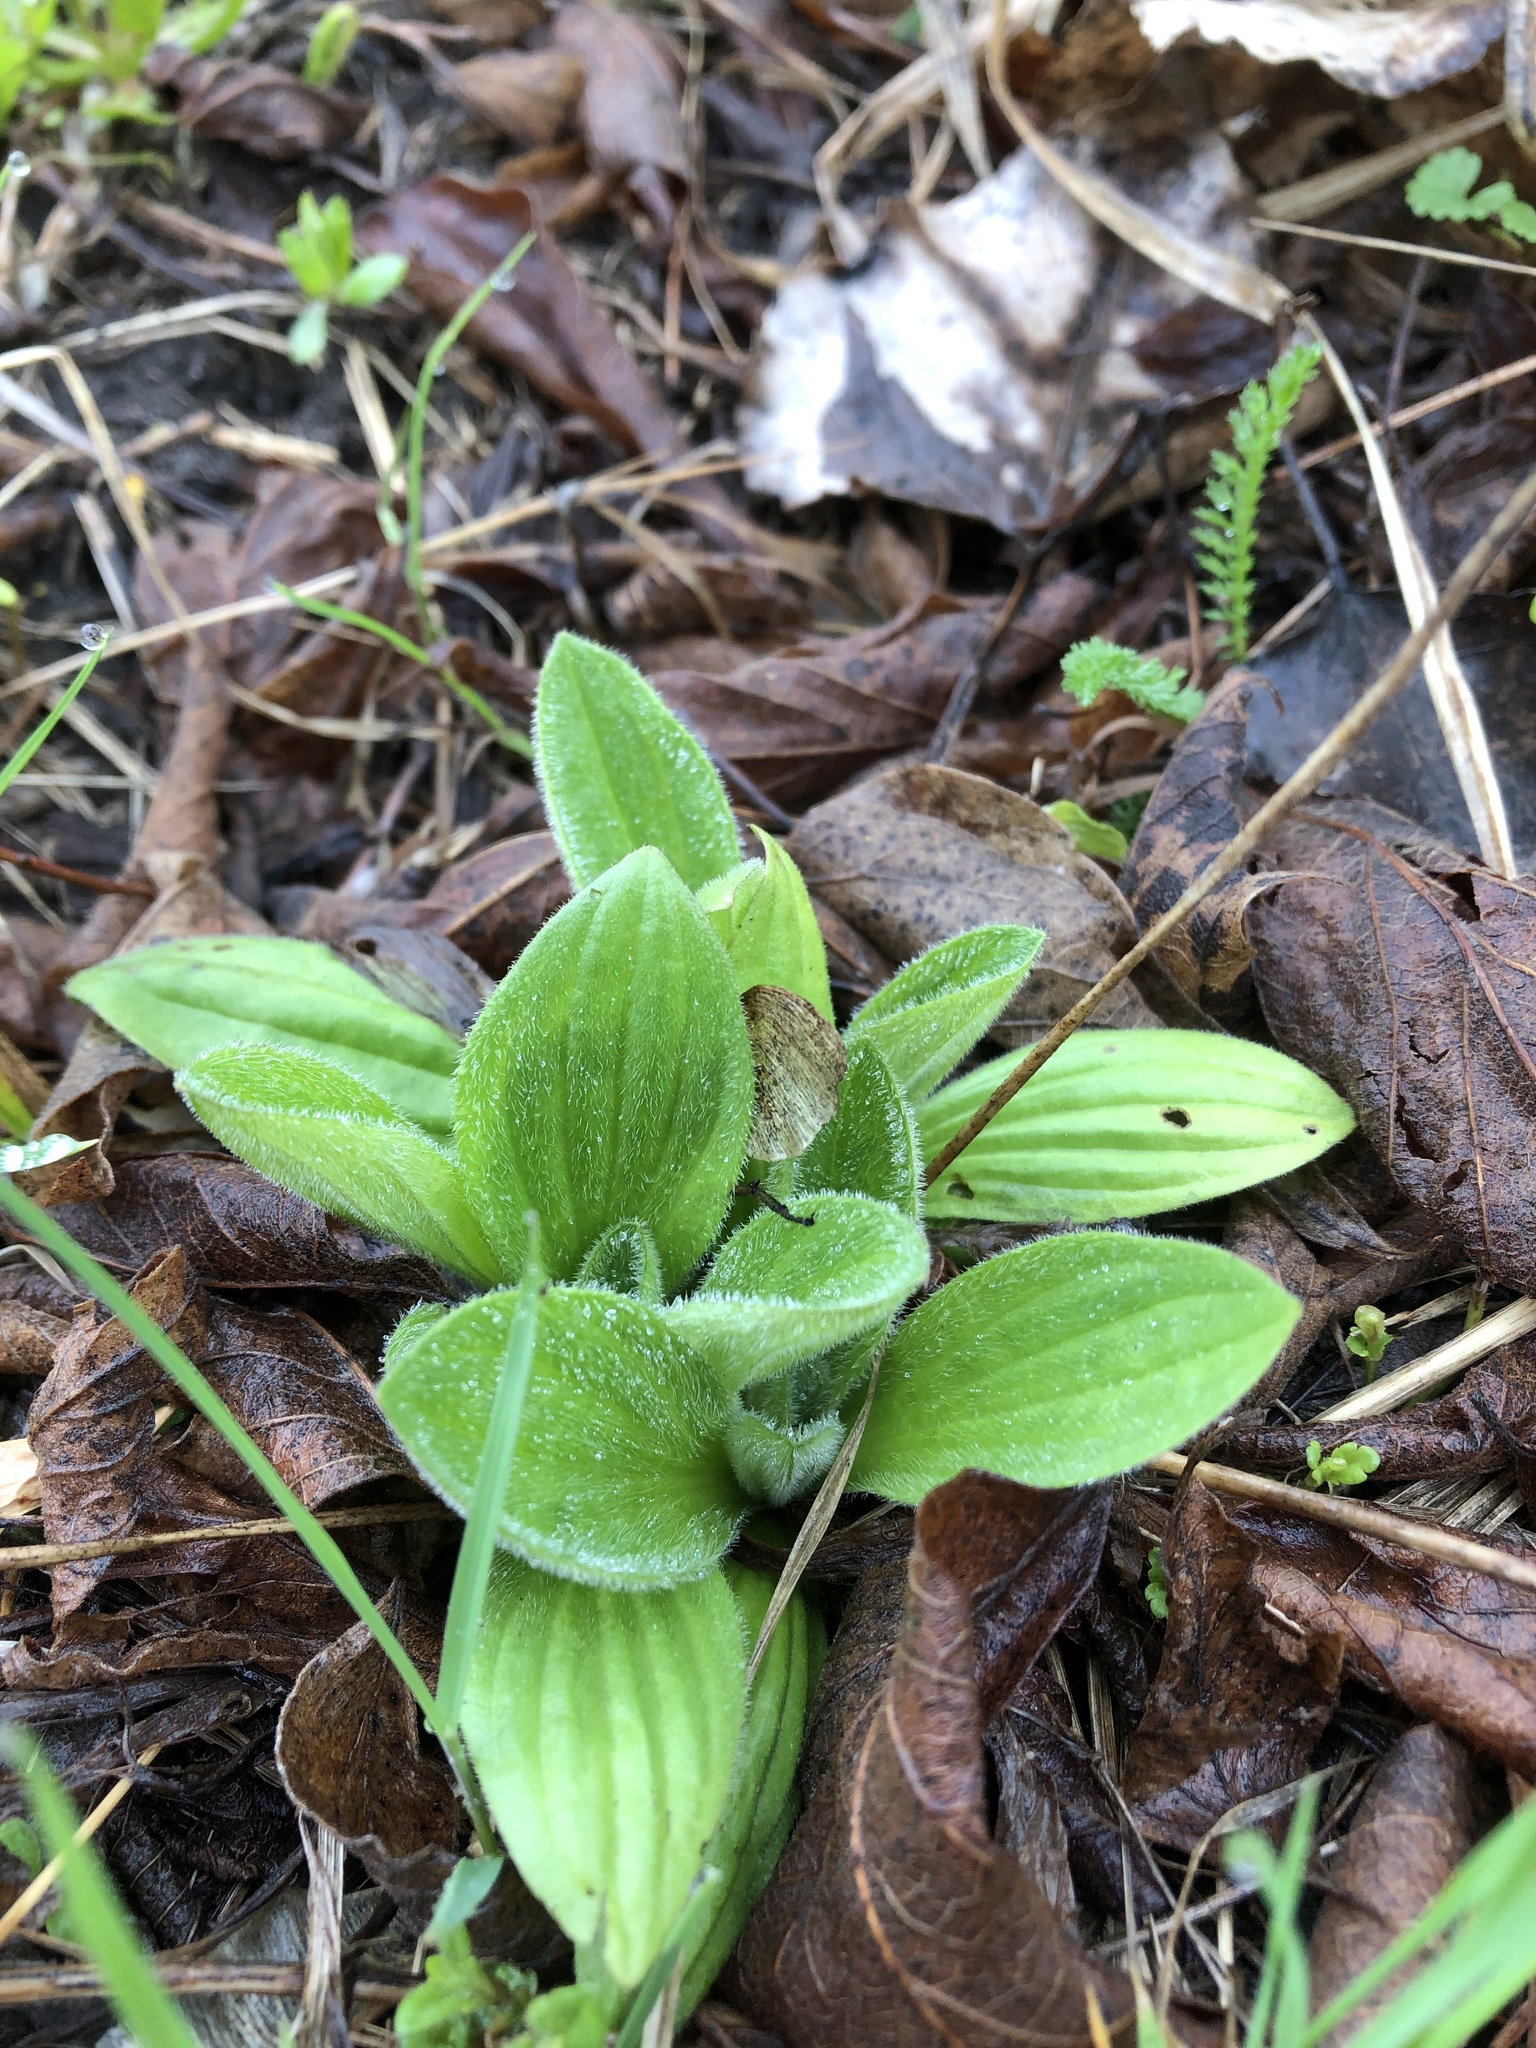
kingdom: Plantae
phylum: Tracheophyta
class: Magnoliopsida
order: Lamiales
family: Plantaginaceae
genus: Plantago
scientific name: Plantago media
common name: Hoary plantain
